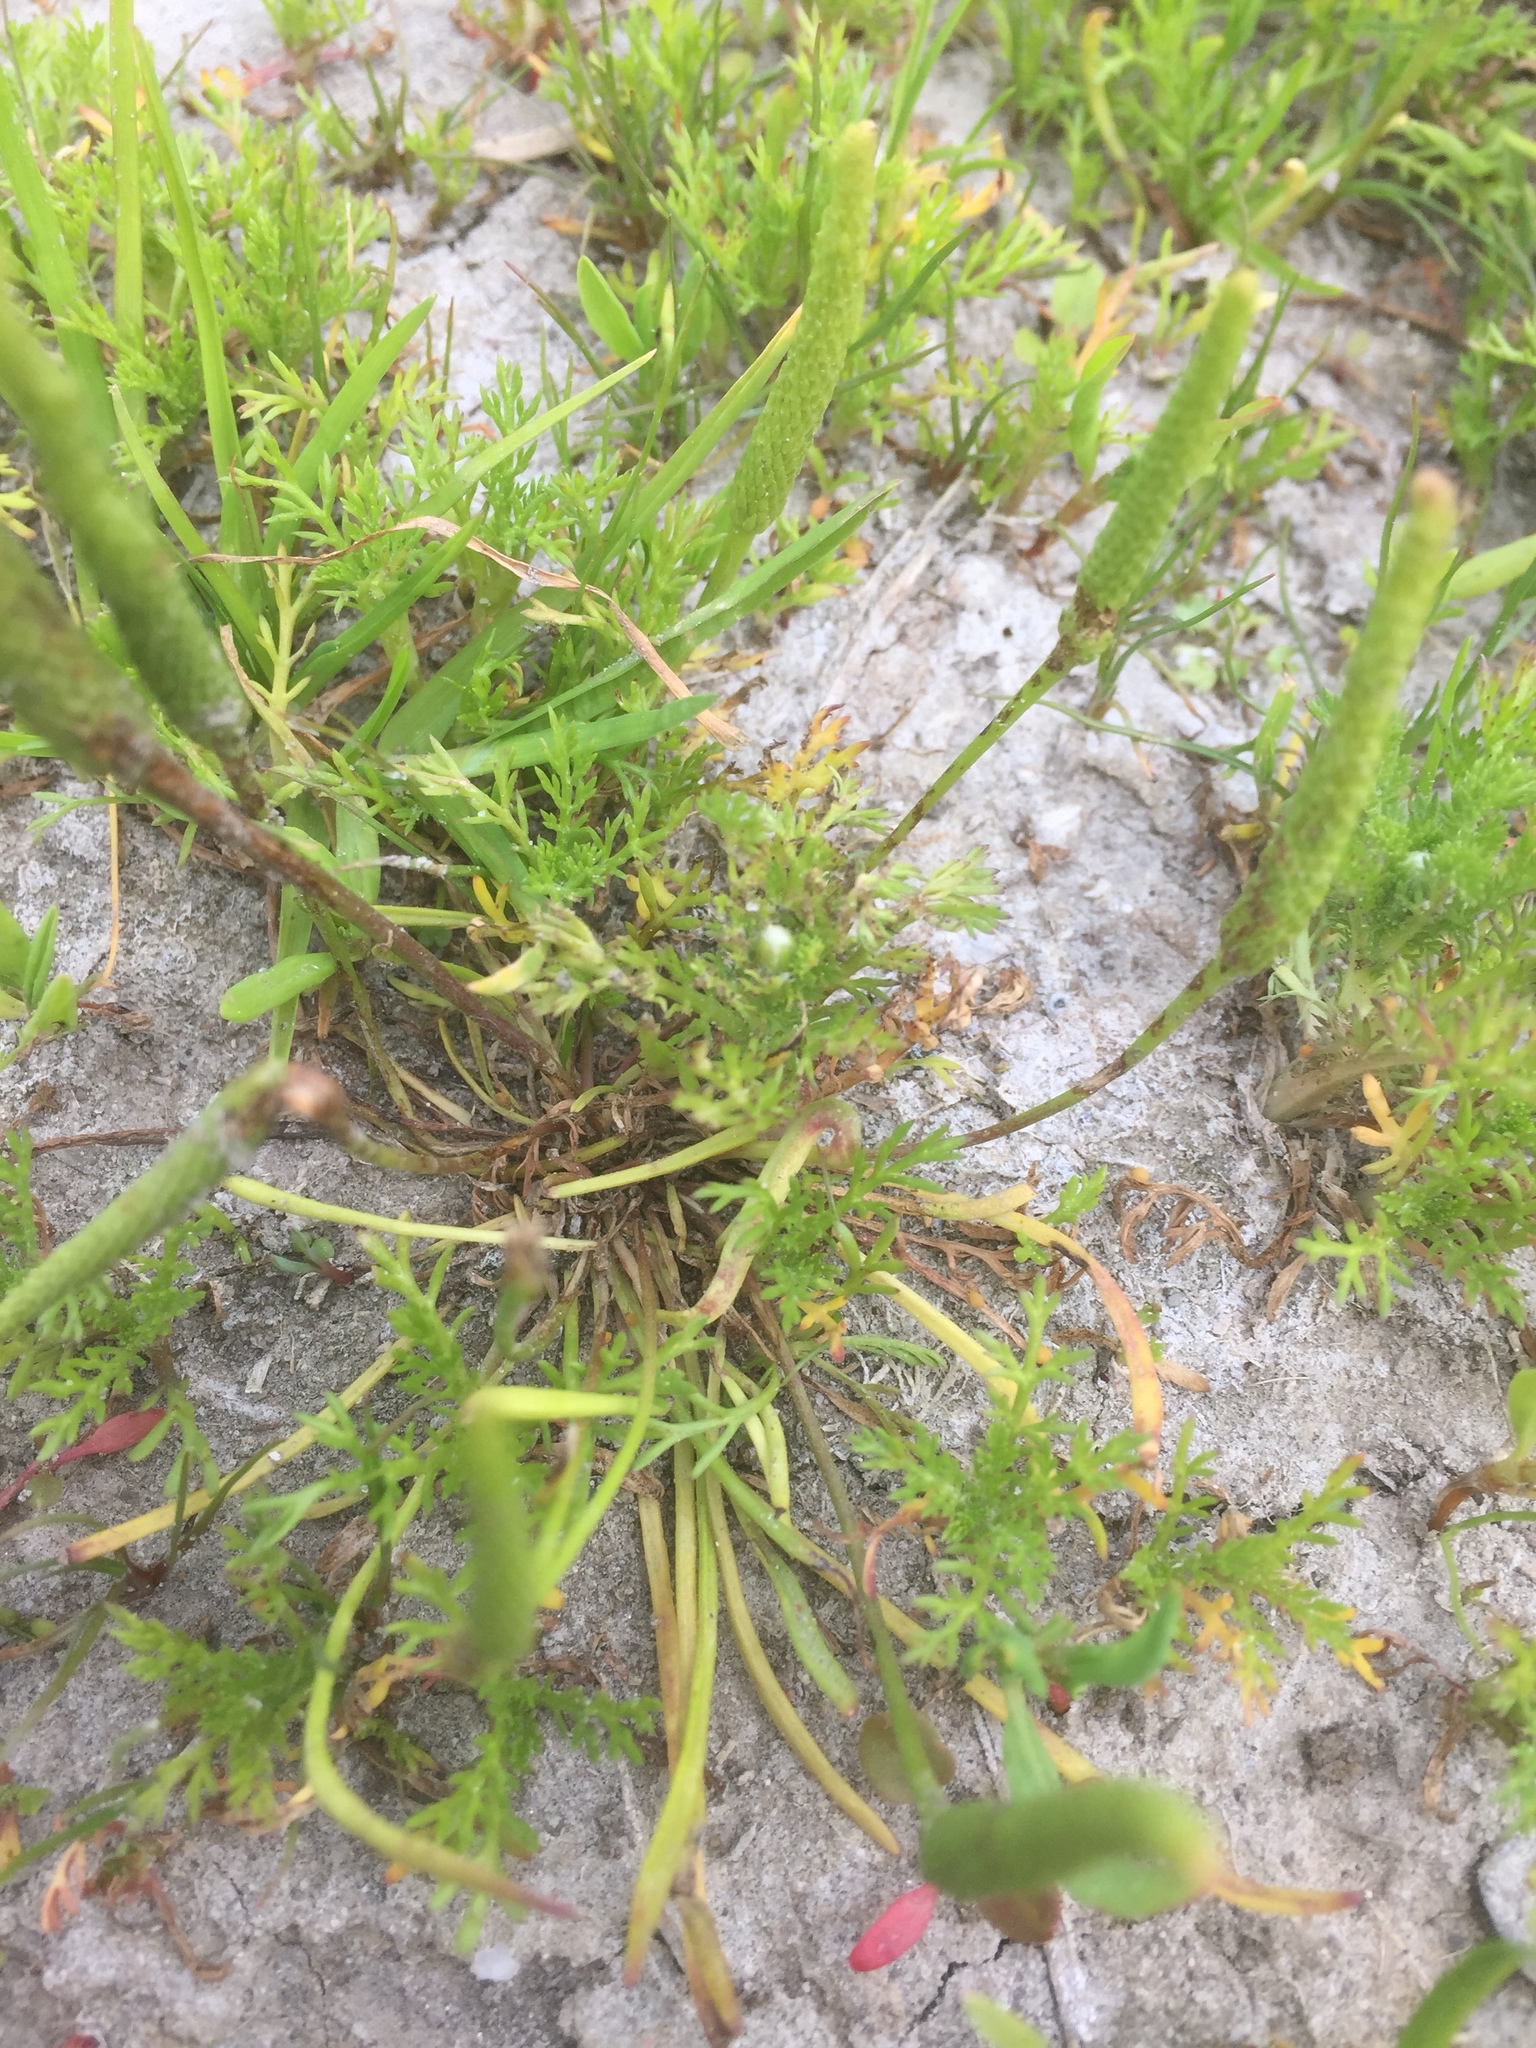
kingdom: Plantae
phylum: Tracheophyta
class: Magnoliopsida
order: Ranunculales
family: Ranunculaceae
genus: Myosurus
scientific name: Myosurus minimus
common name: Mousetail
